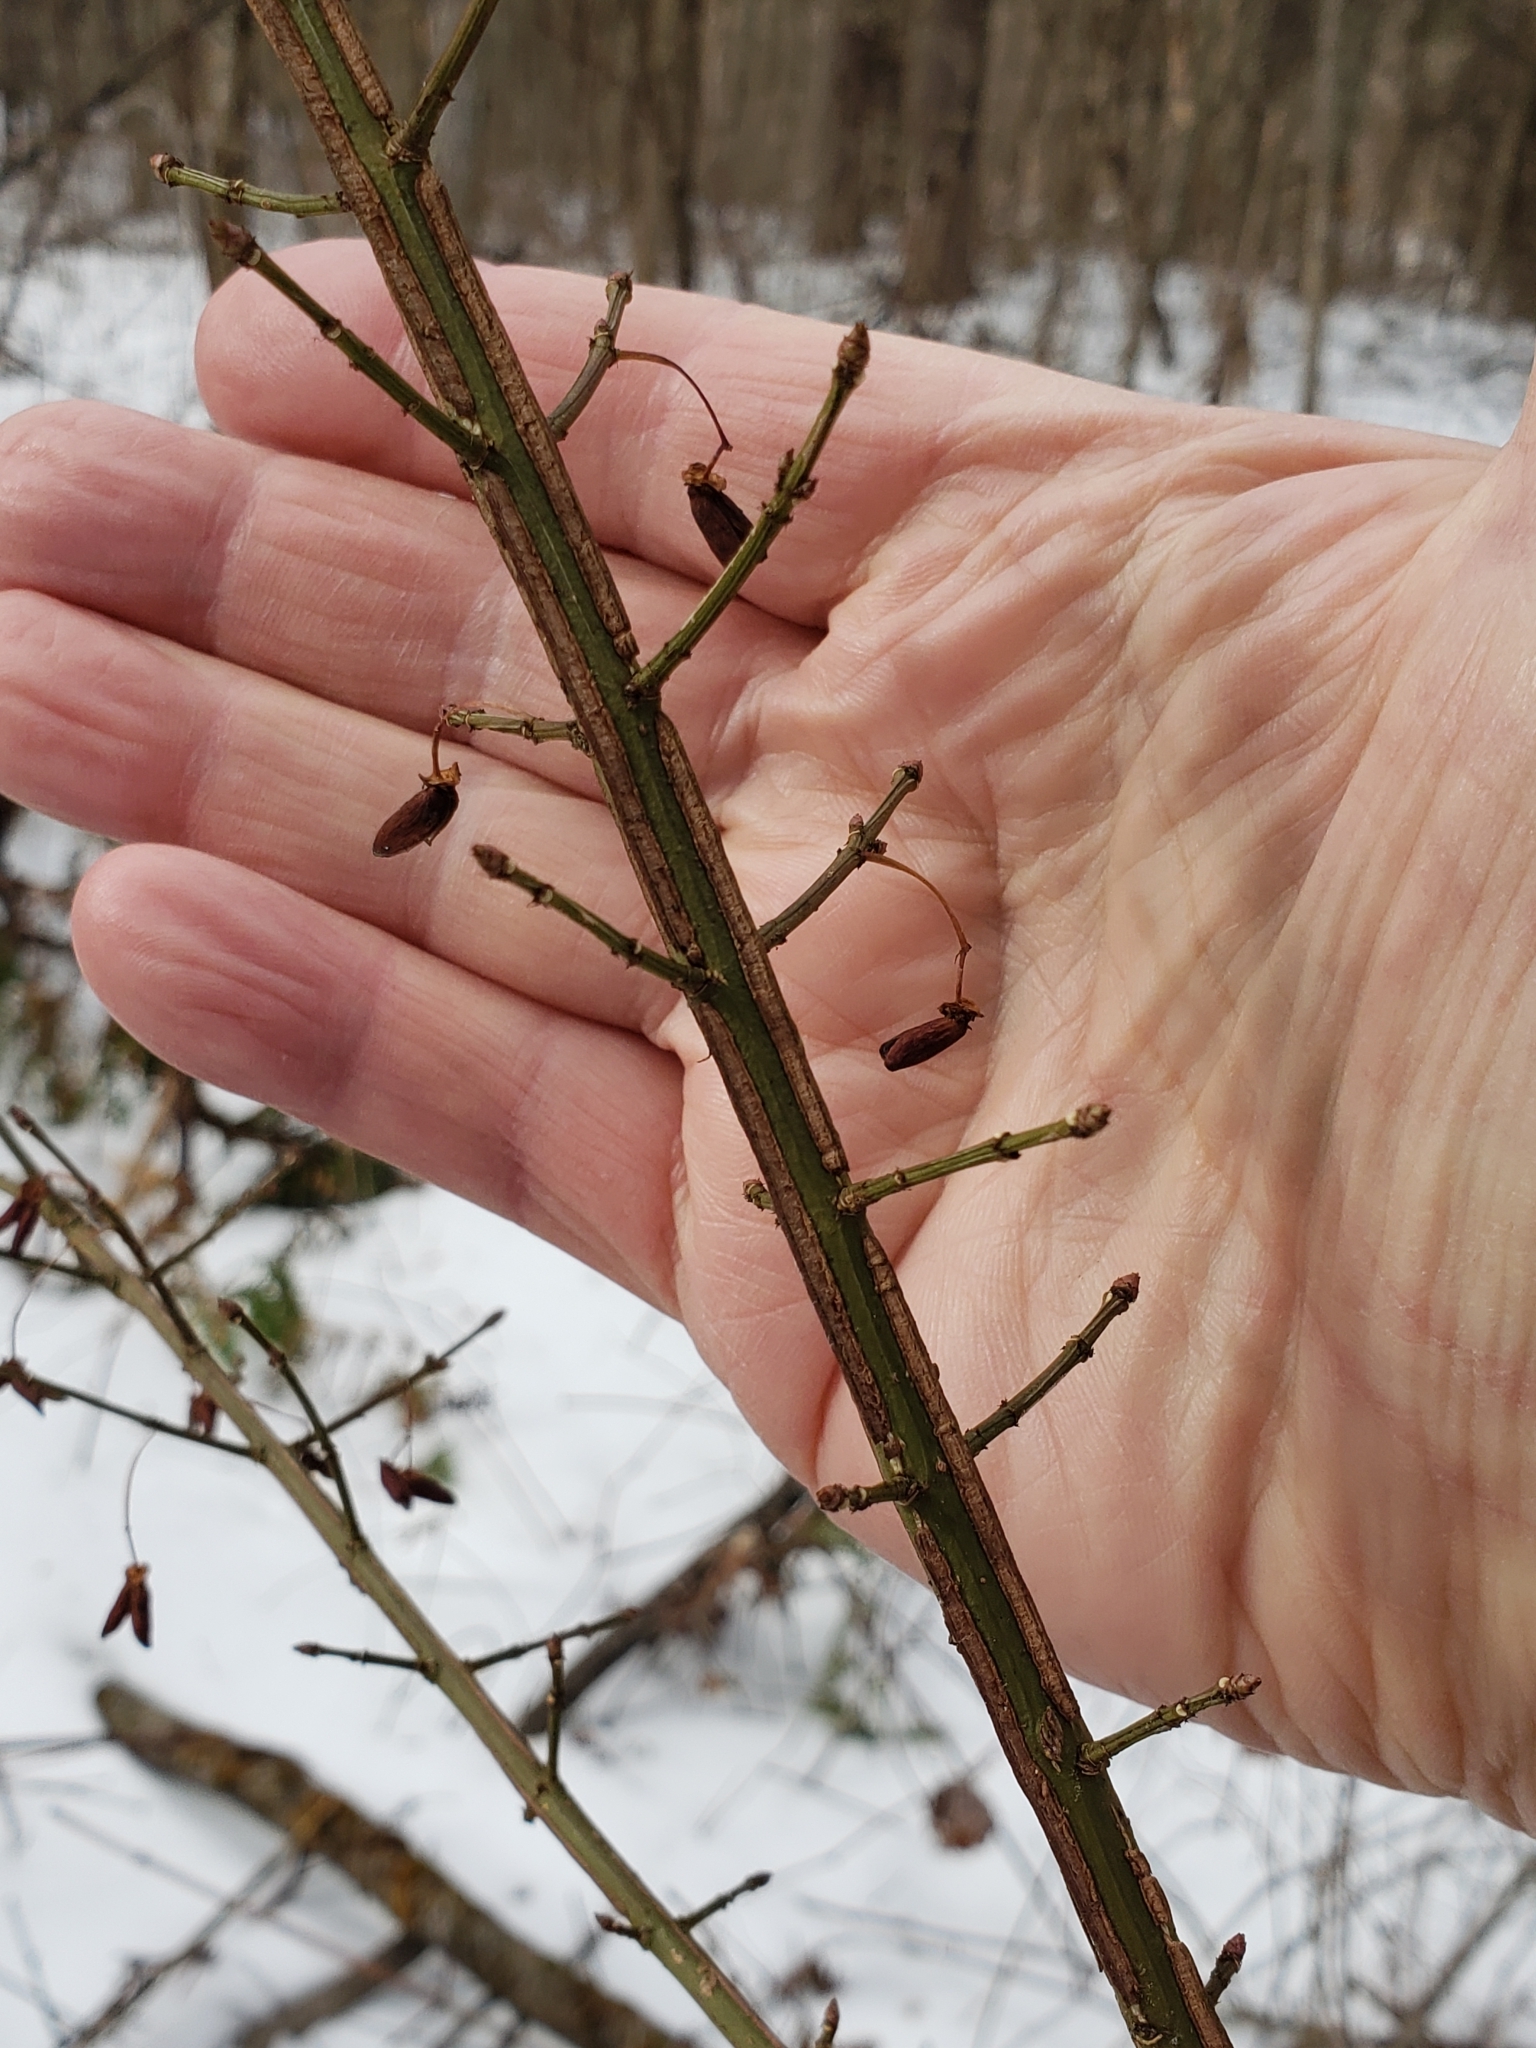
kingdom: Plantae
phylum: Tracheophyta
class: Magnoliopsida
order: Celastrales
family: Celastraceae
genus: Euonymus
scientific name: Euonymus alatus
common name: Winged euonymus
